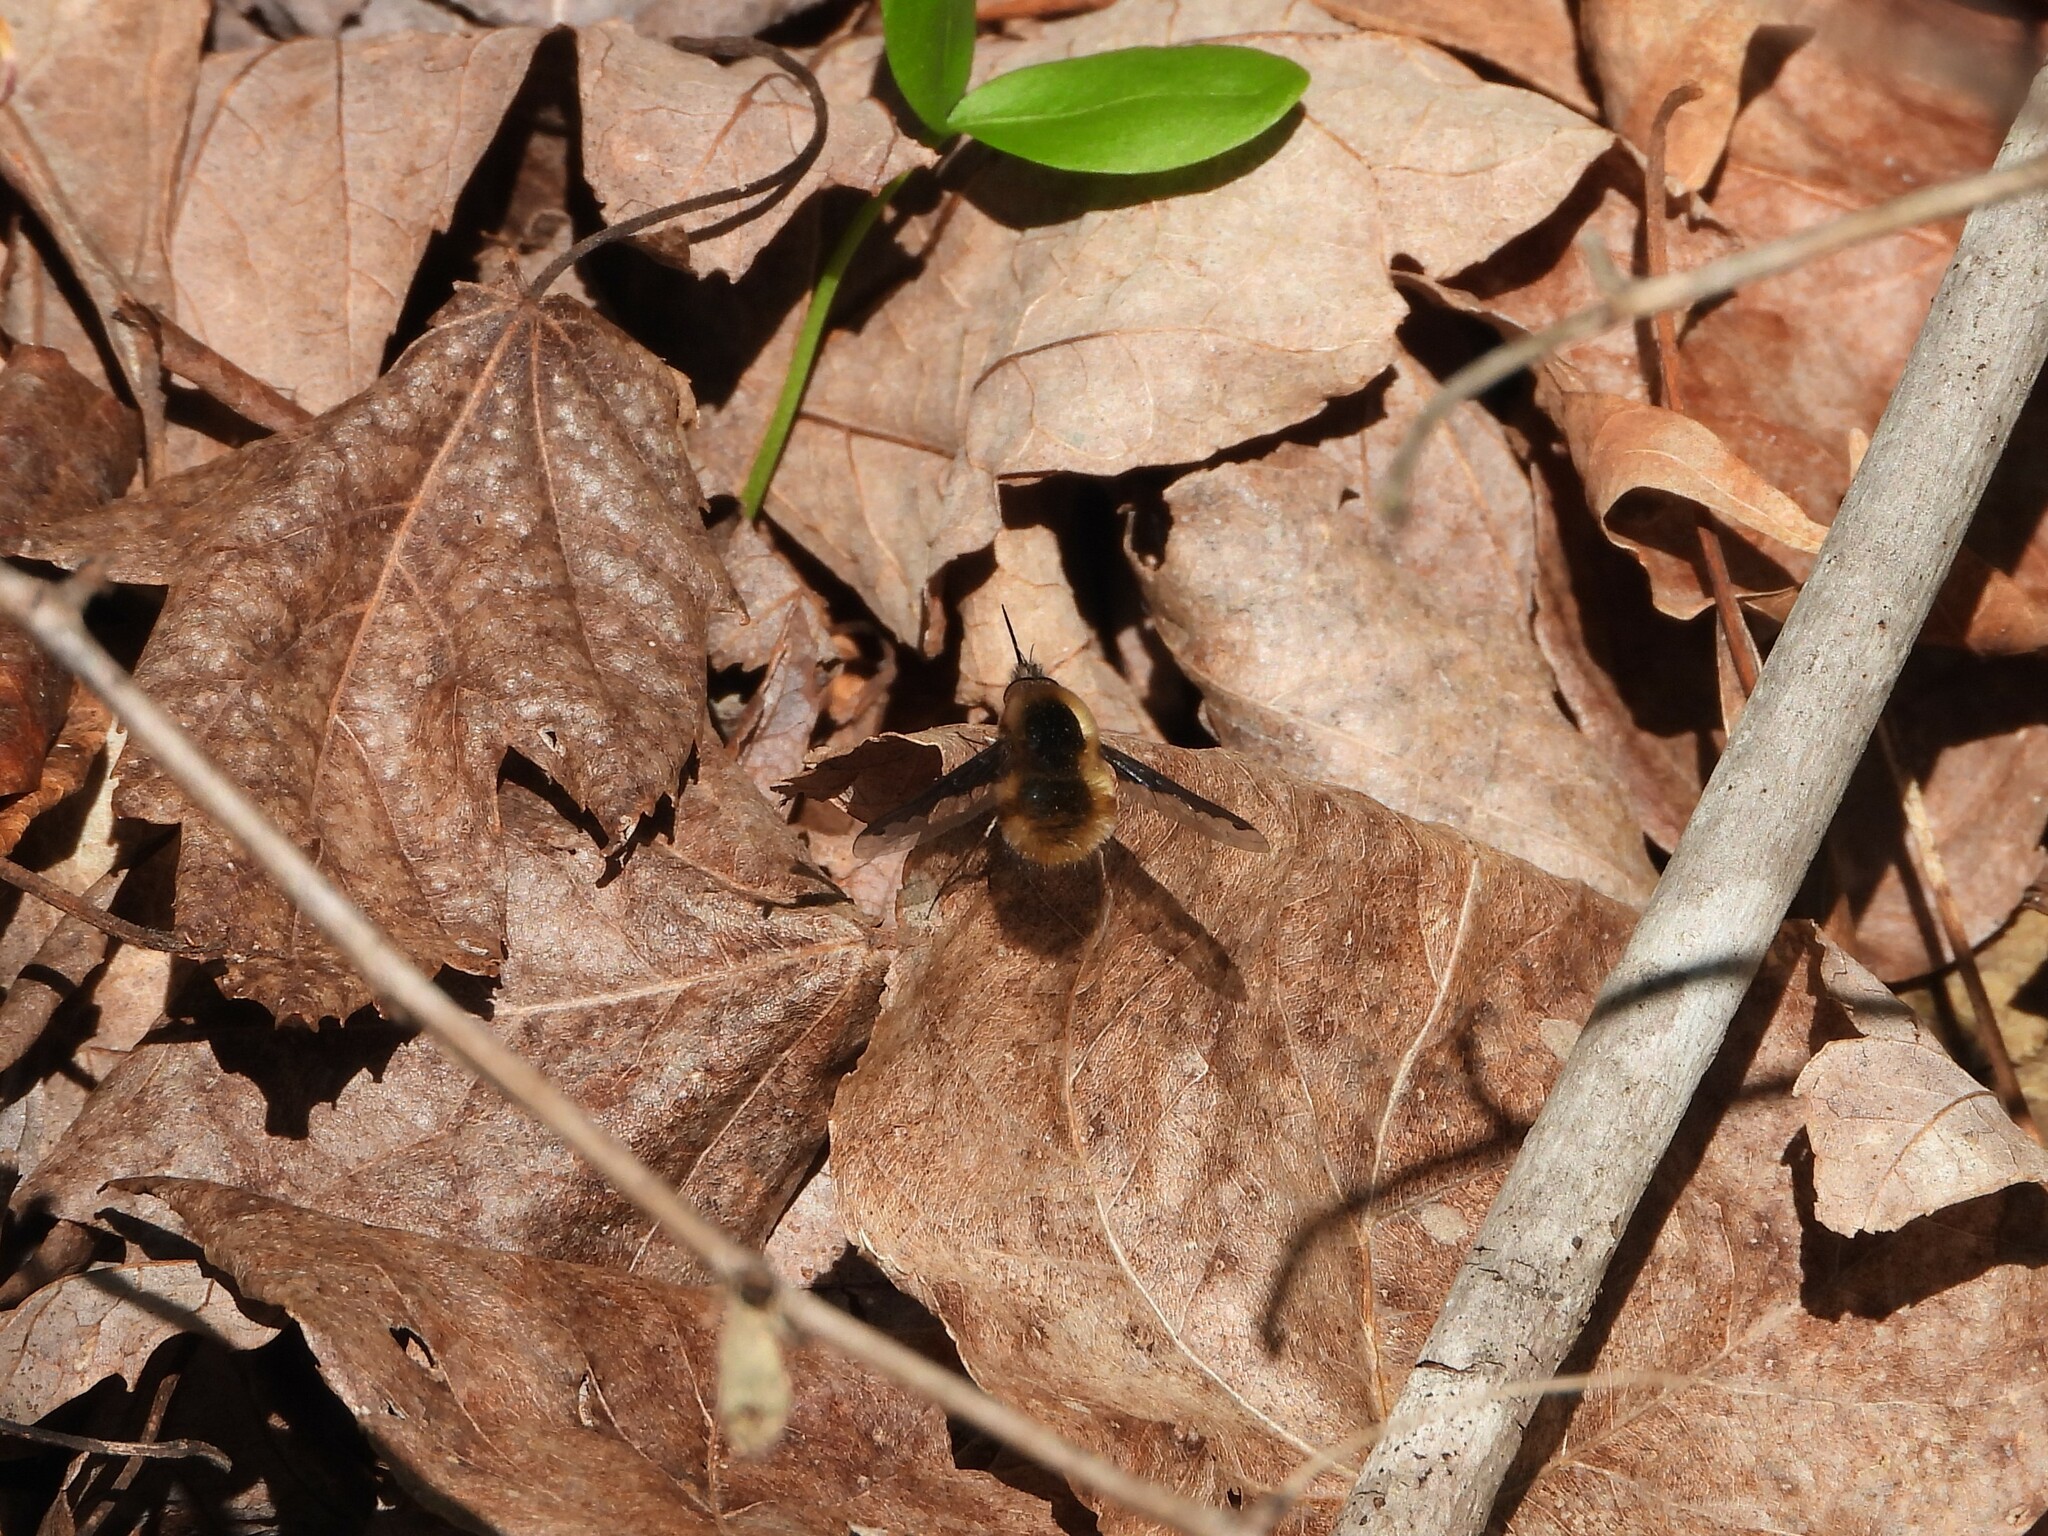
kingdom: Animalia
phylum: Arthropoda
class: Insecta
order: Diptera
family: Bombyliidae
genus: Bombylius
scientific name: Bombylius major
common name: Bee fly
